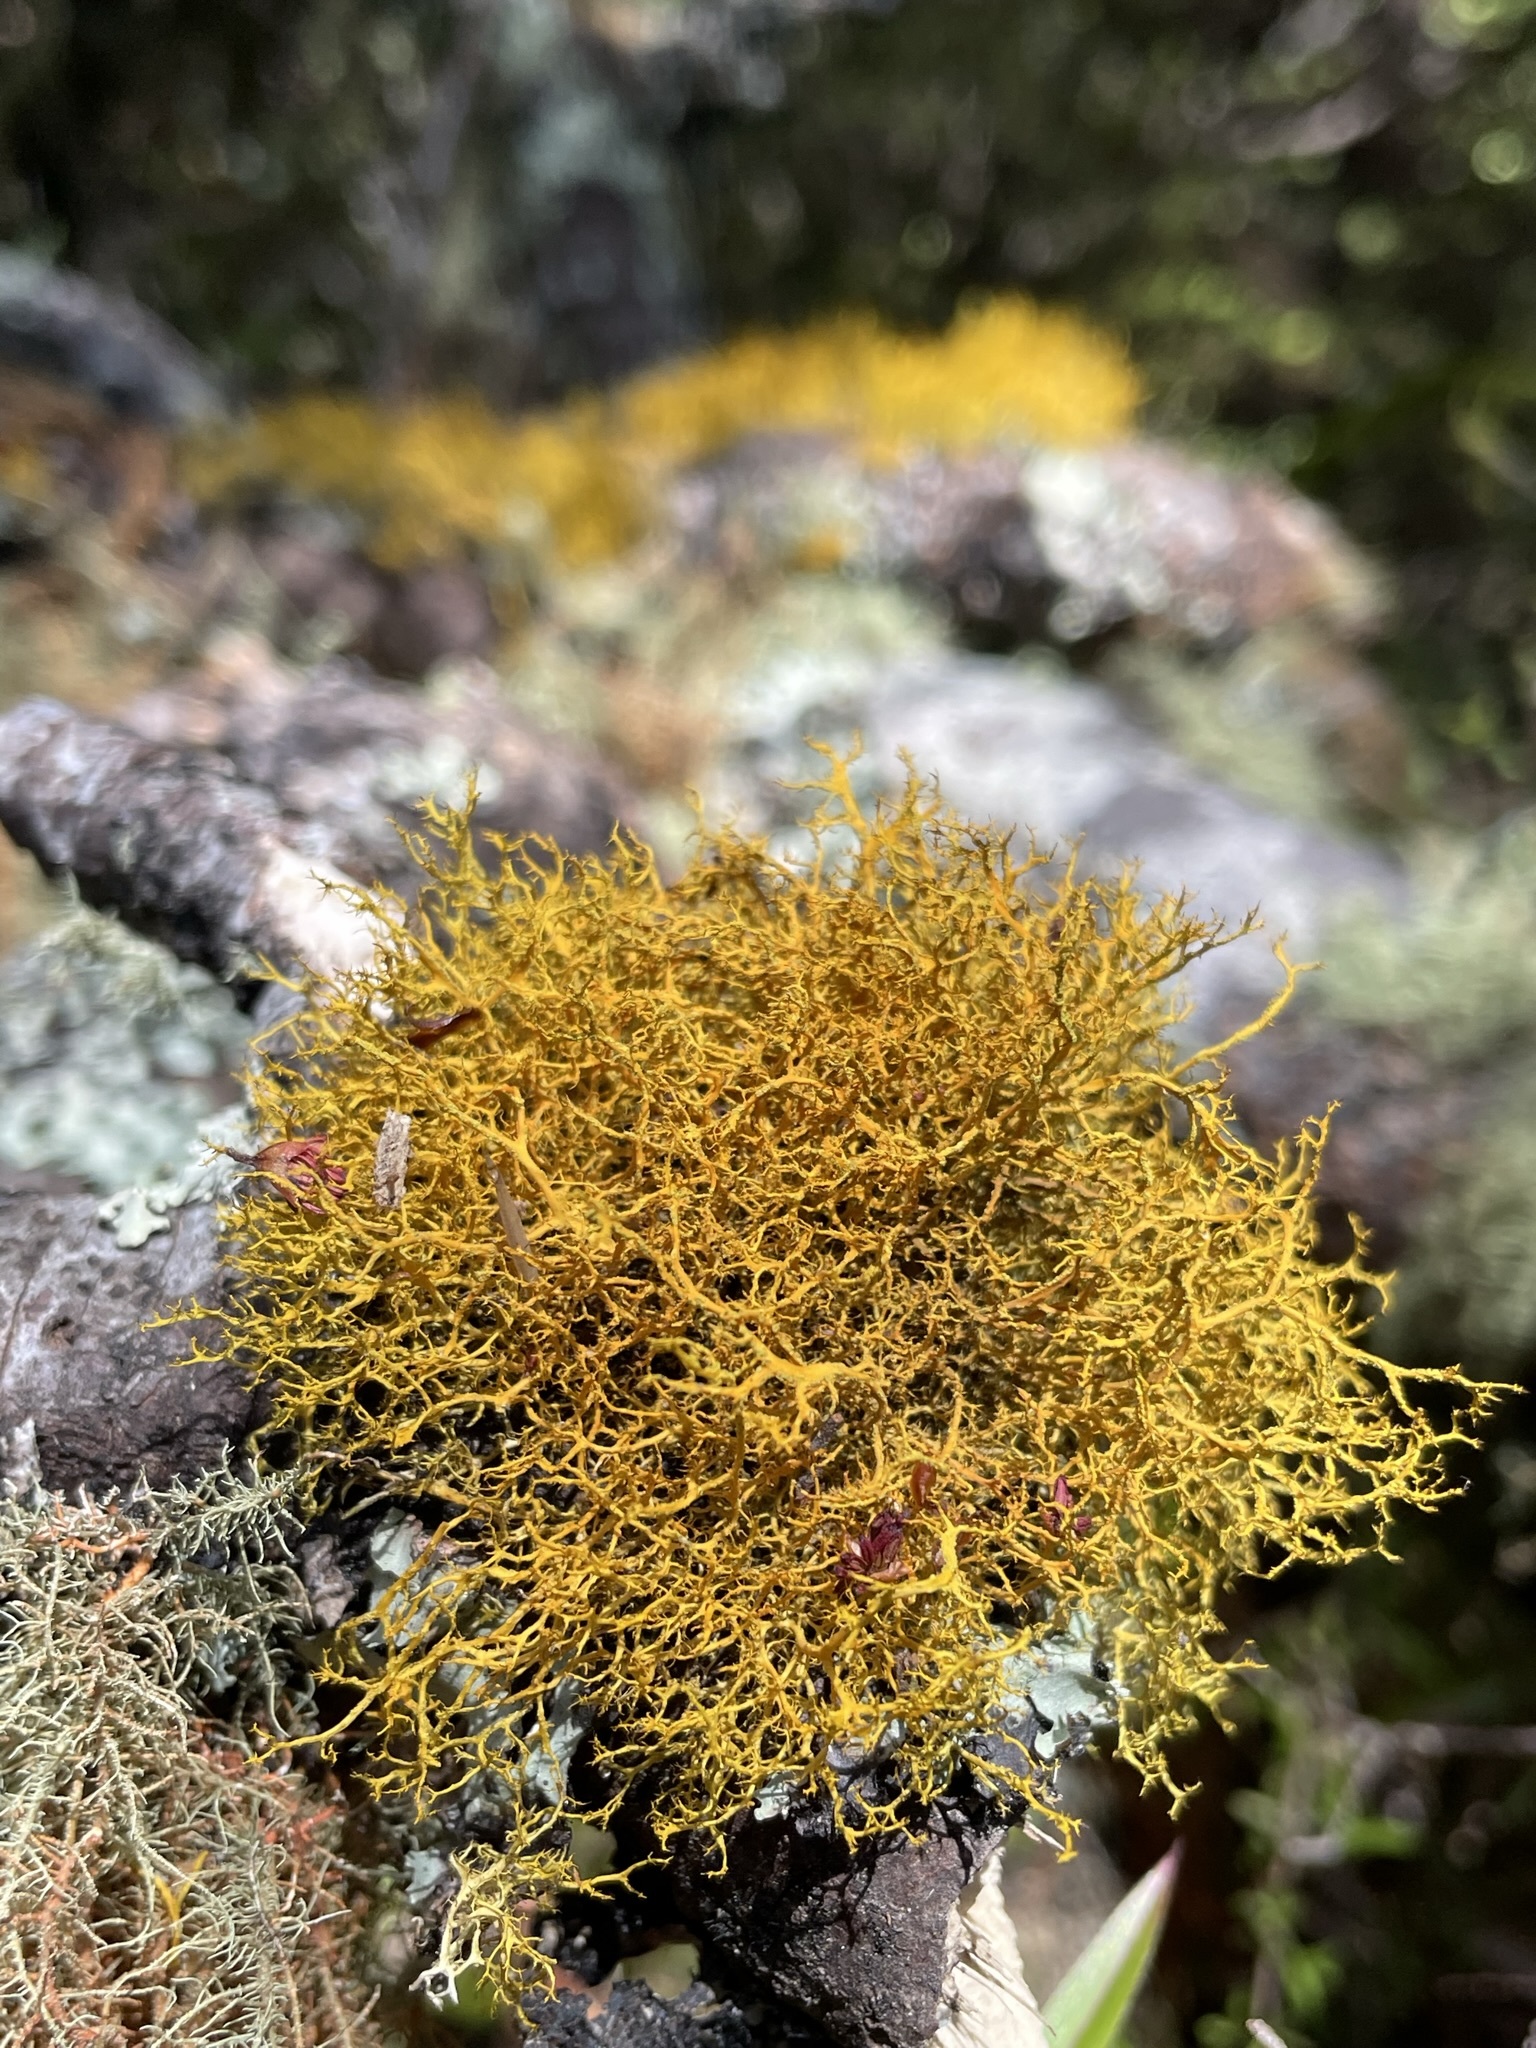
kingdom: Fungi
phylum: Ascomycota
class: Lecanoromycetes
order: Teloschistales
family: Teloschistaceae
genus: Teloschistes
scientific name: Teloschistes flavicans
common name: Golden hair-lichen
